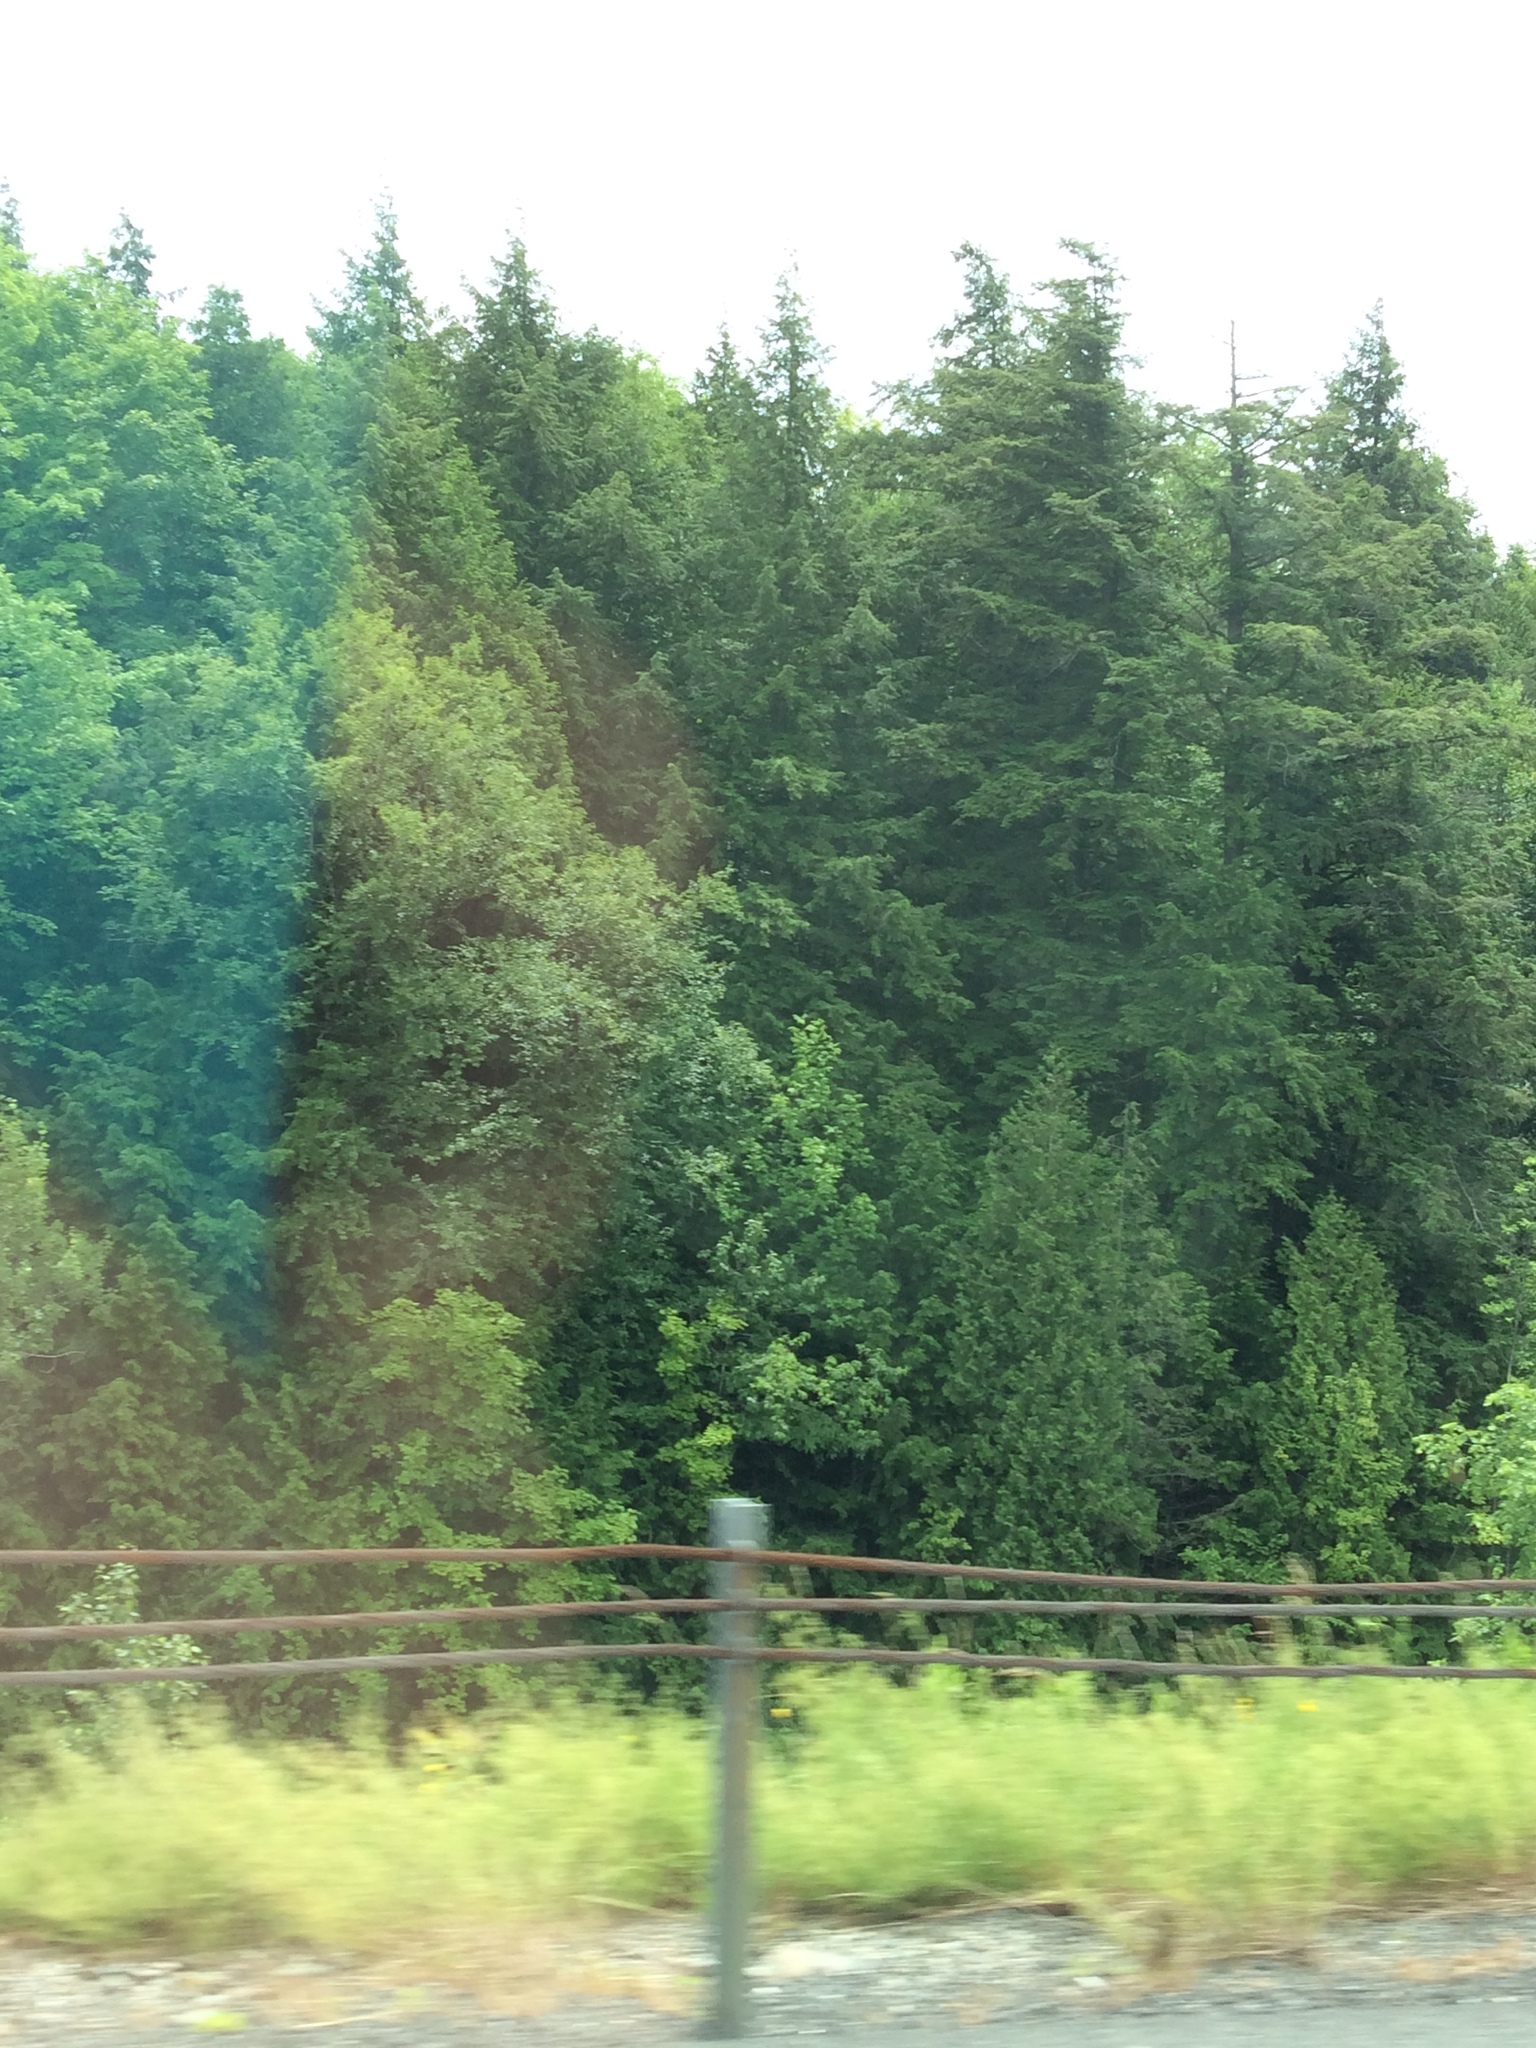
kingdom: Plantae
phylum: Tracheophyta
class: Pinopsida
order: Pinales
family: Pinaceae
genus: Tsuga
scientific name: Tsuga canadensis
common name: Eastern hemlock
